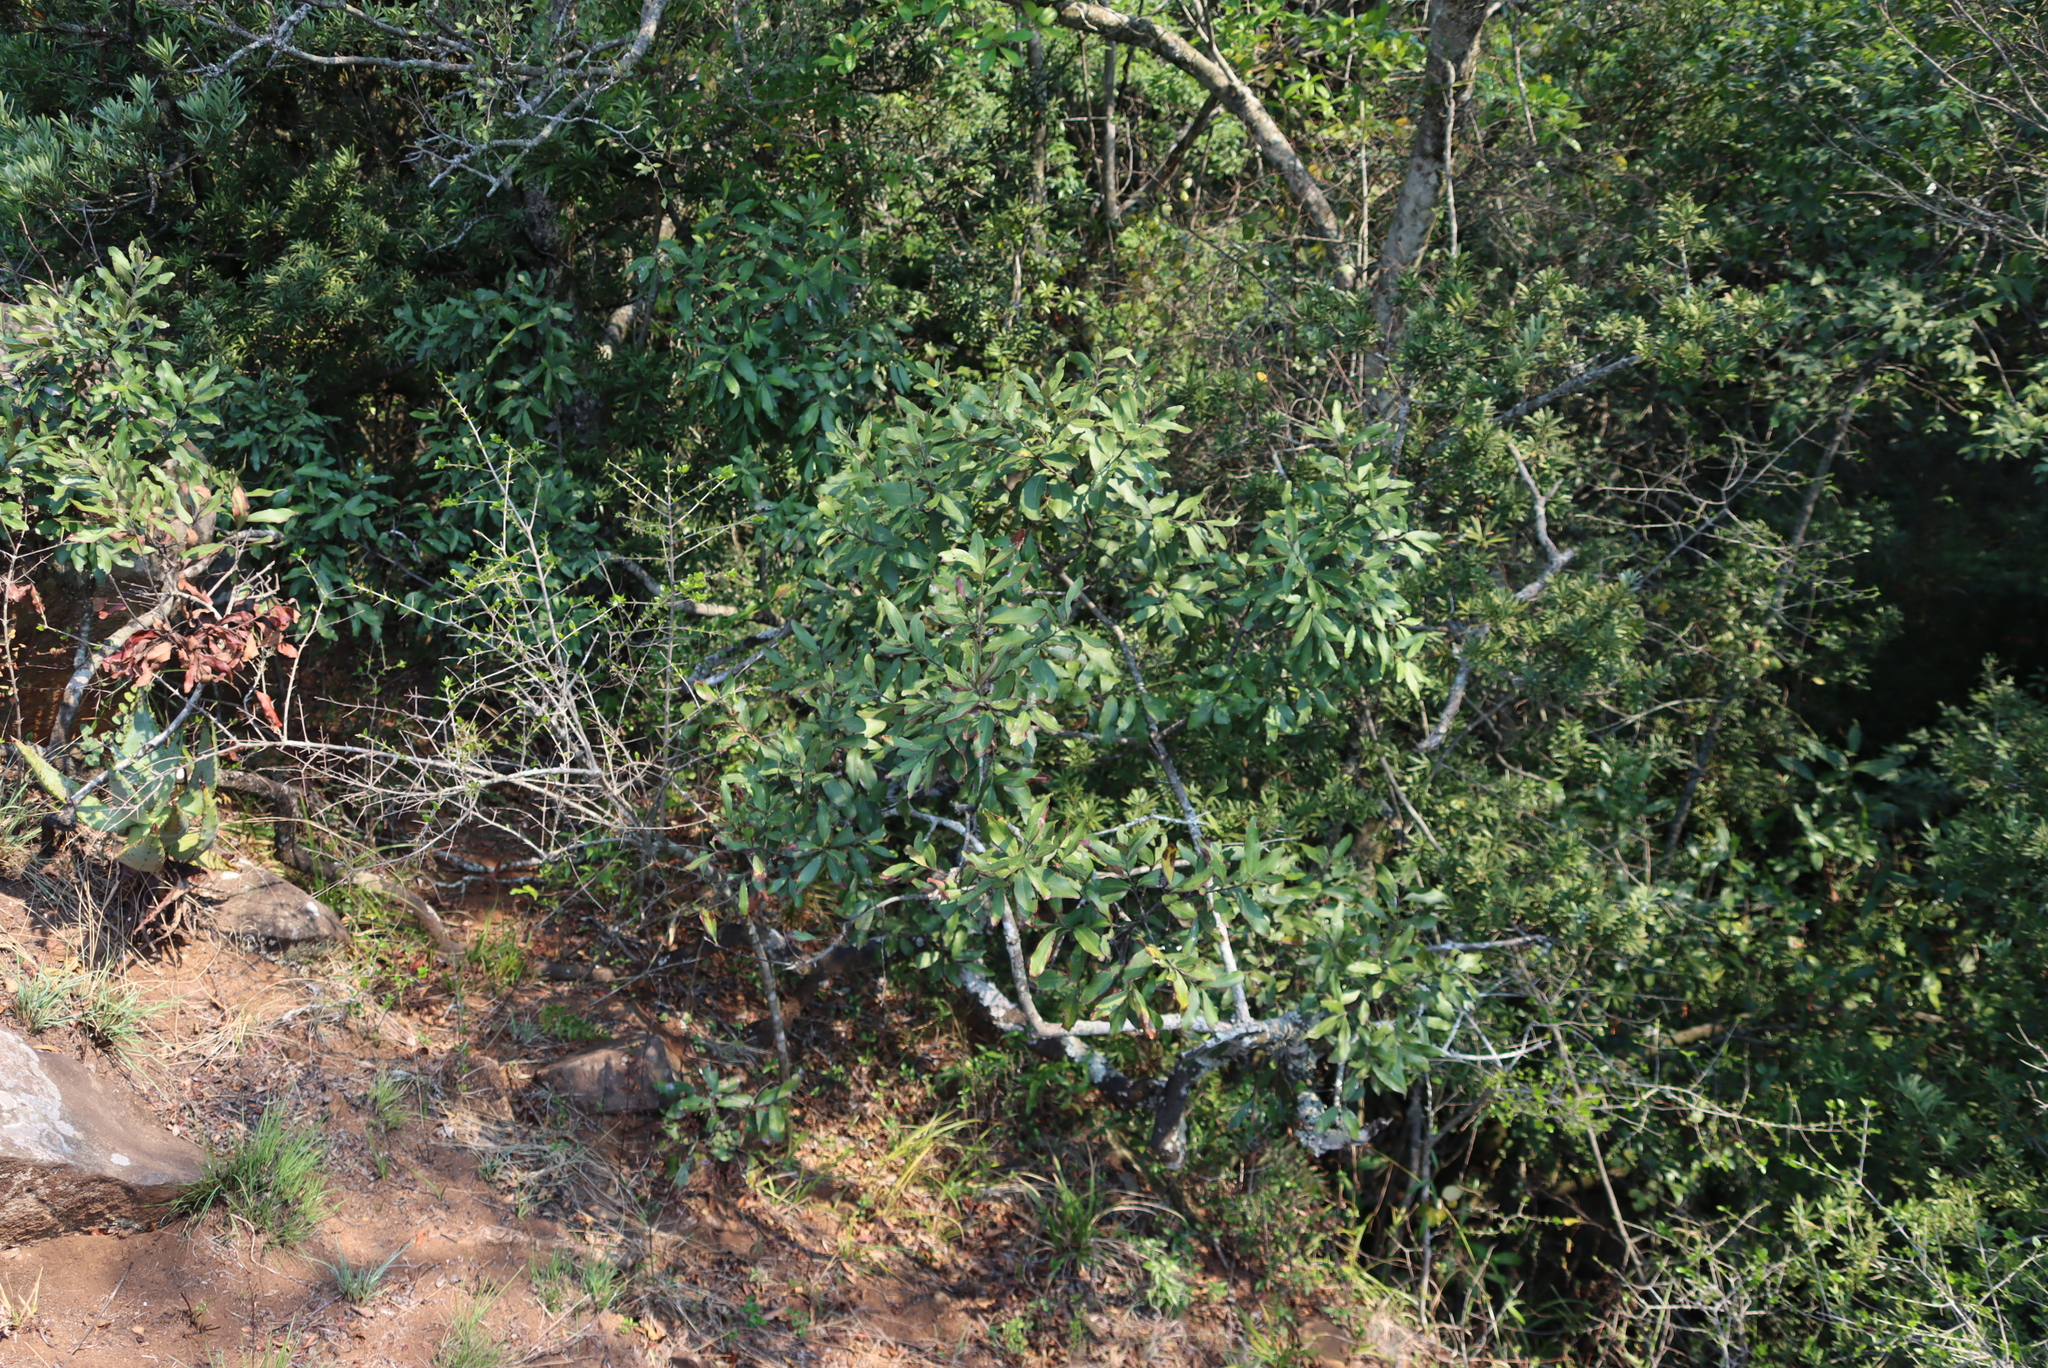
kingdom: Plantae
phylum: Tracheophyta
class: Magnoliopsida
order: Ericales
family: Ebenaceae
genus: Euclea
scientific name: Euclea crispa
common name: Blue guarri
